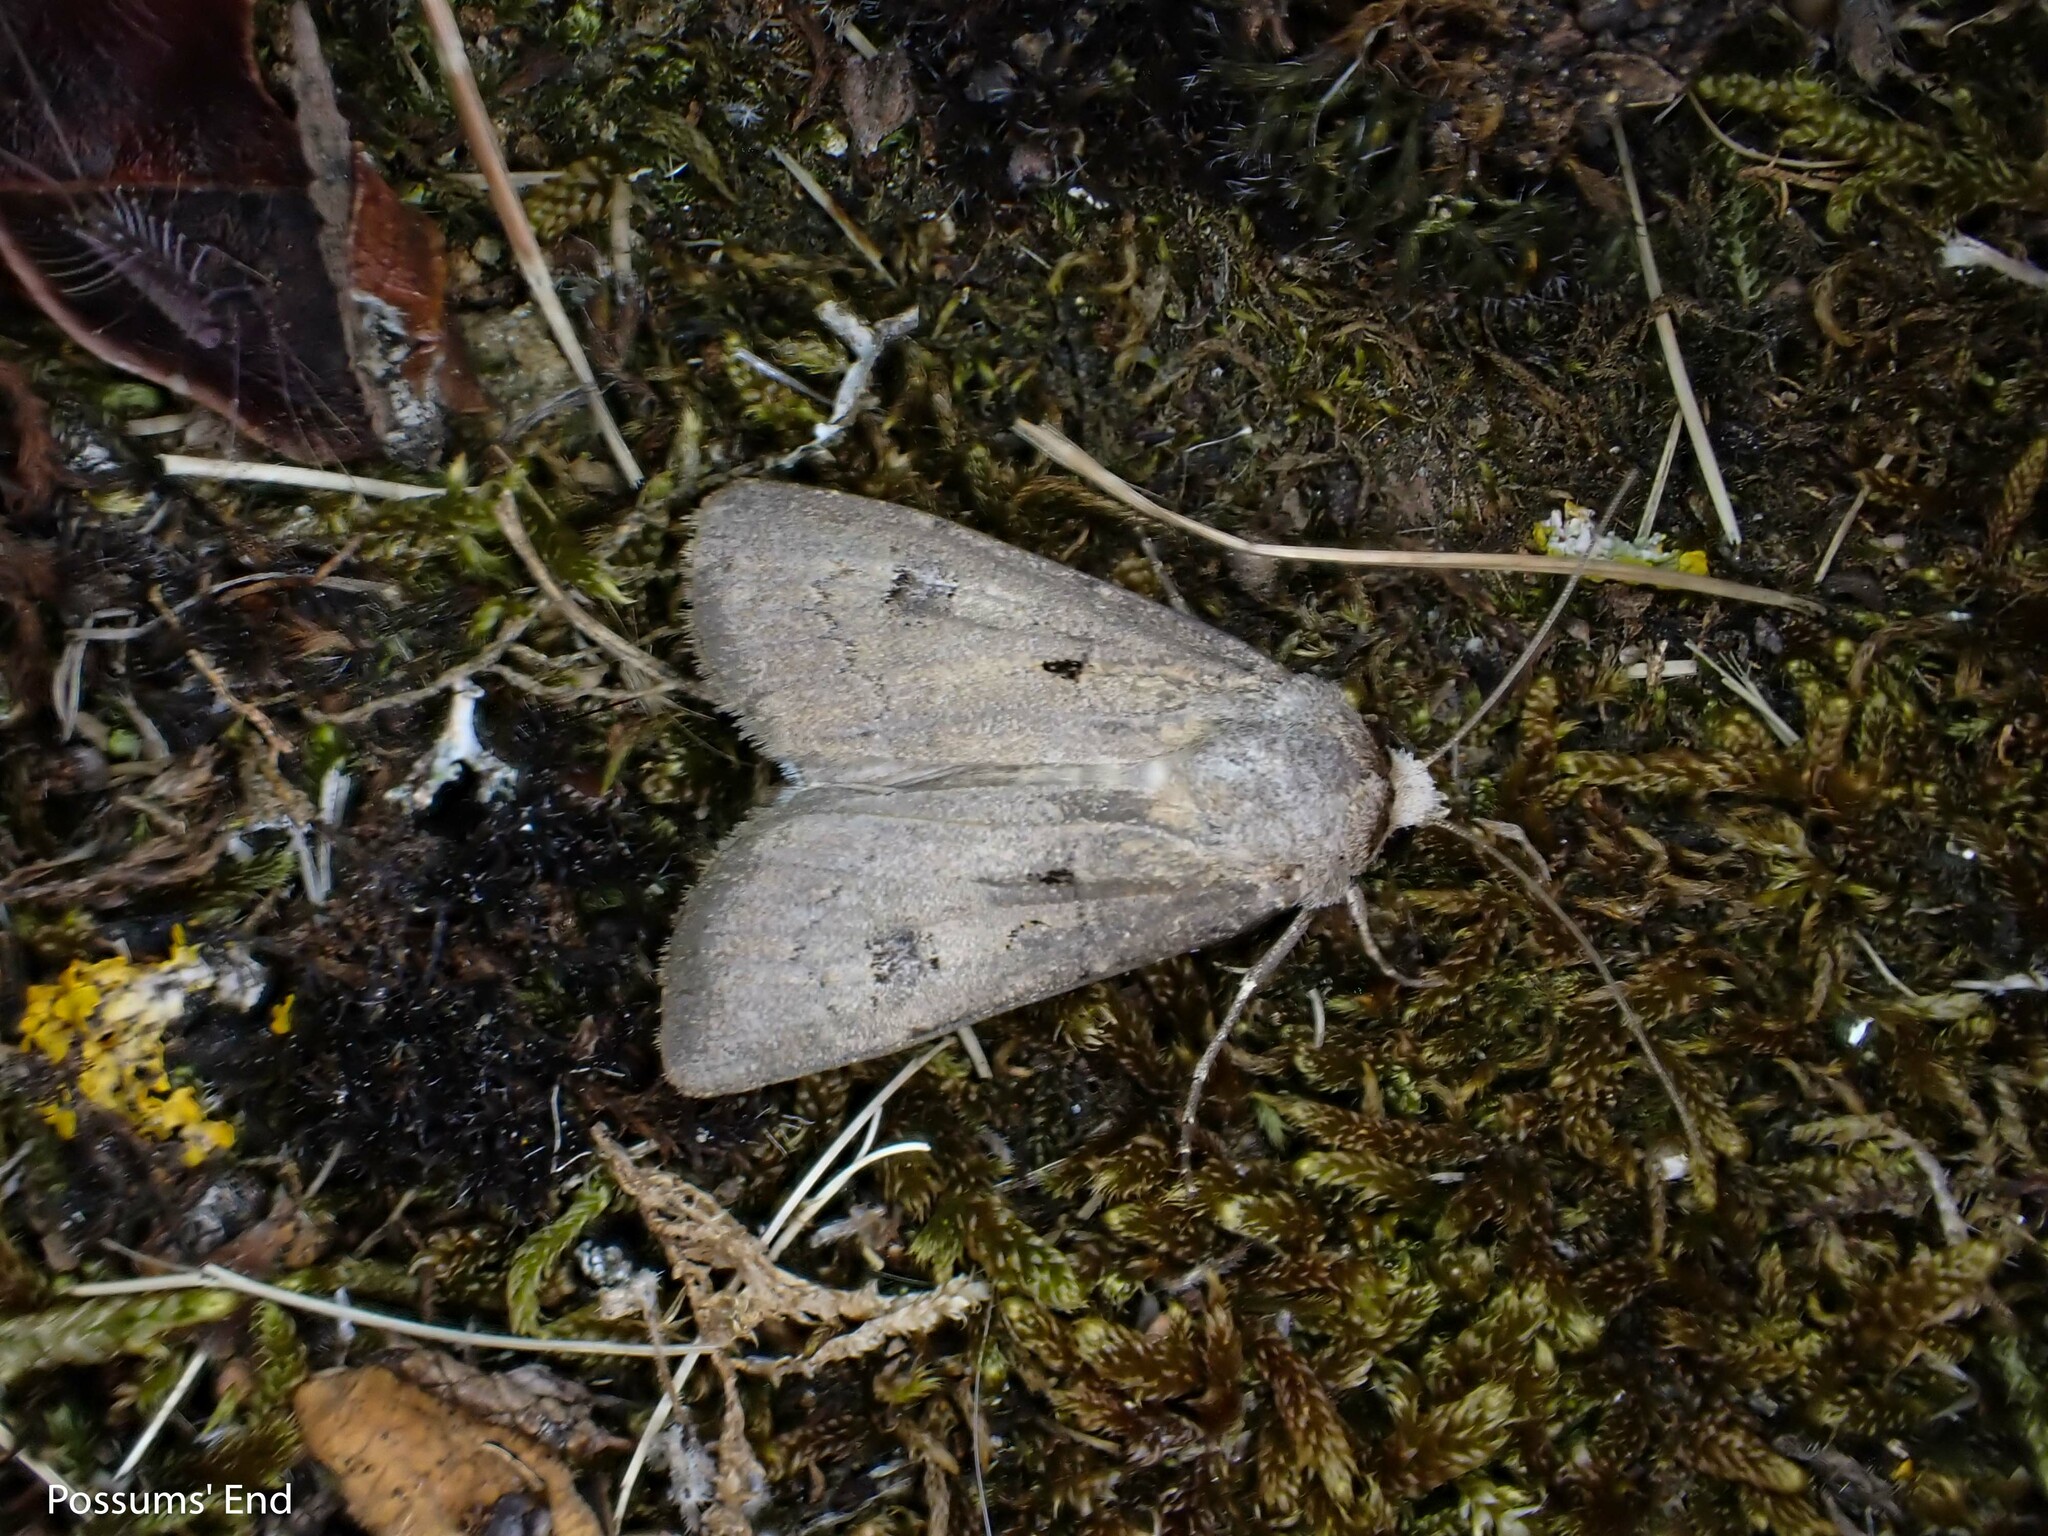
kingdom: Animalia
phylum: Arthropoda
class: Insecta
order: Lepidoptera
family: Noctuidae
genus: Agrotis
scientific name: Agrotis exclamationis
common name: Heart and dart
